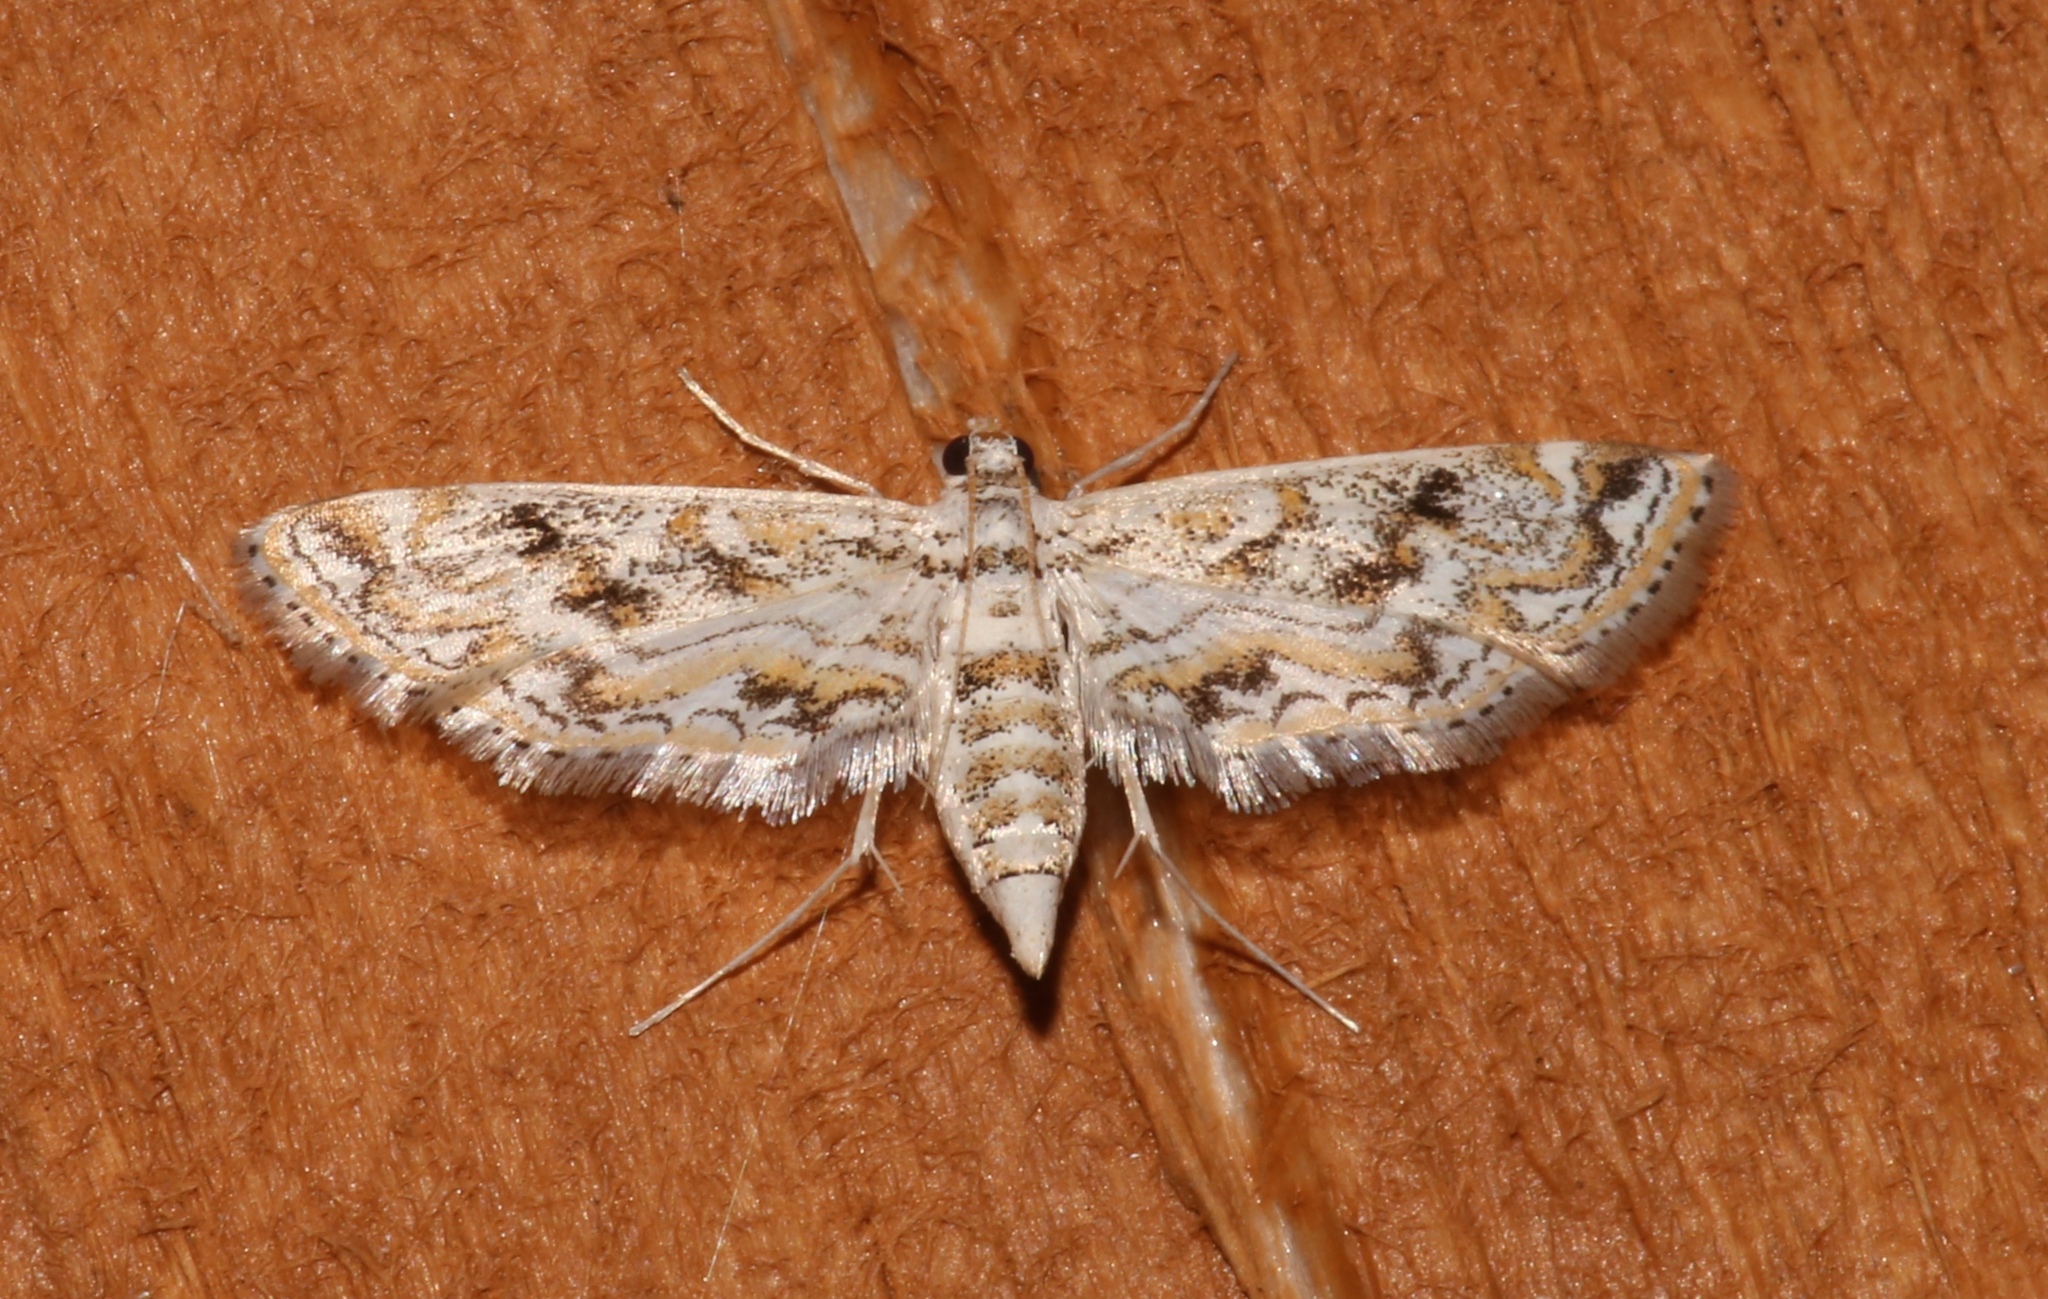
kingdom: Animalia
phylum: Arthropoda
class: Insecta
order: Lepidoptera
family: Crambidae
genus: Parapoynx
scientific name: Parapoynx diminutalis
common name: Hydrilla leafcutter
